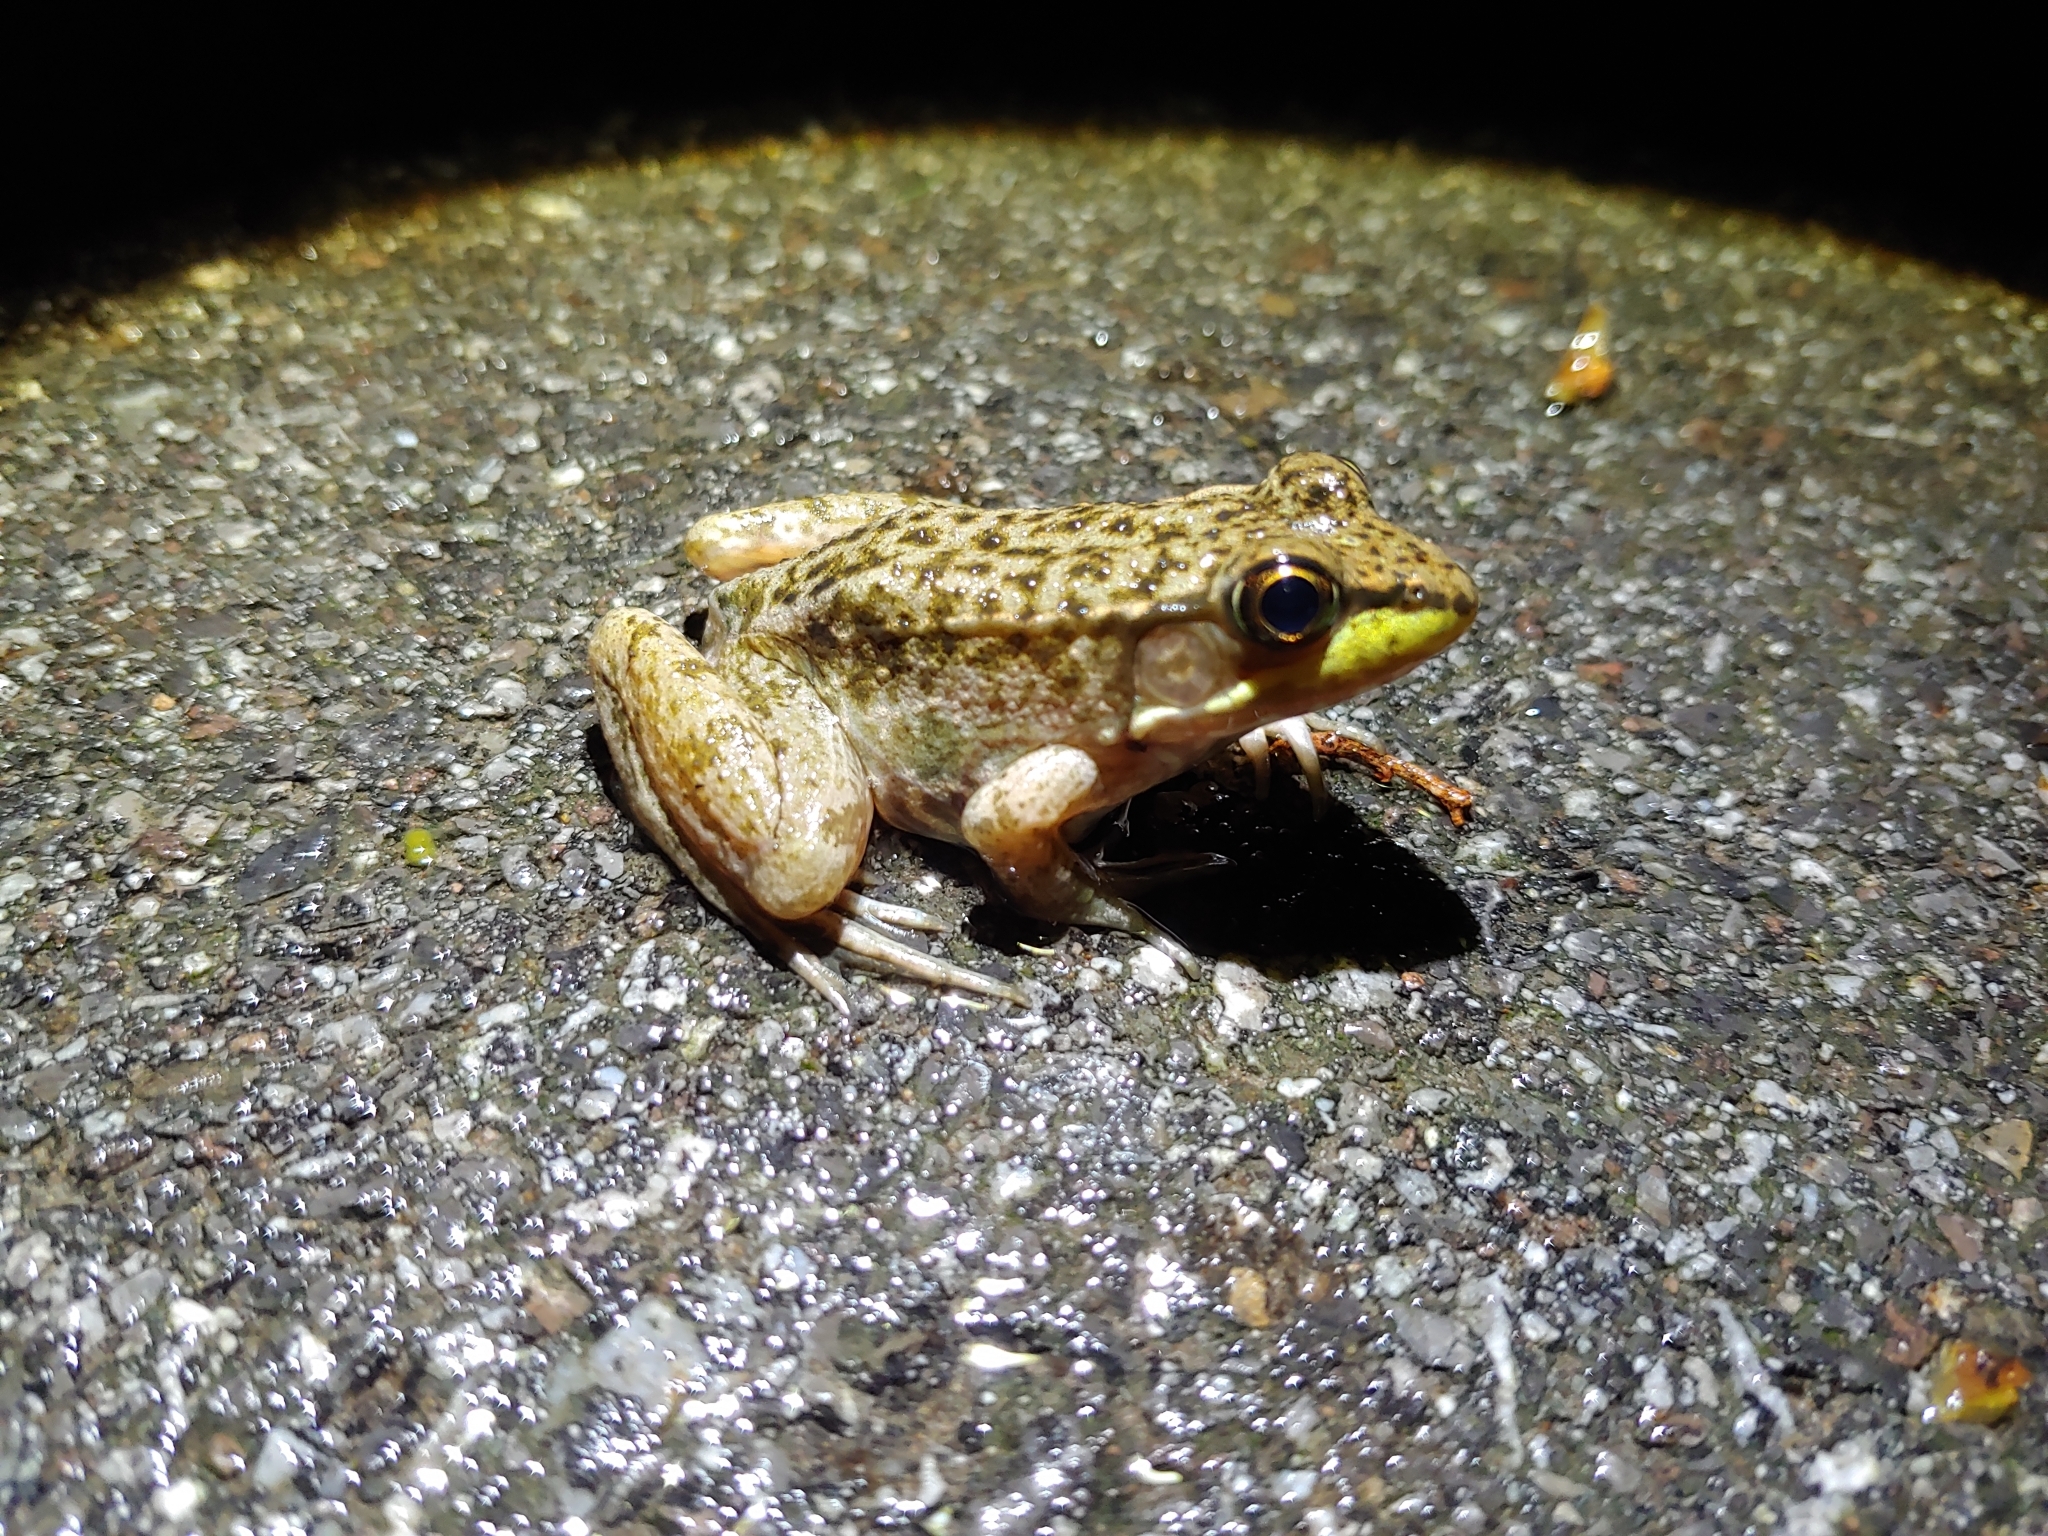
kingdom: Animalia
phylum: Chordata
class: Amphibia
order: Anura
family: Ranidae
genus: Lithobates
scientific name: Lithobates clamitans
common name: Green frog
